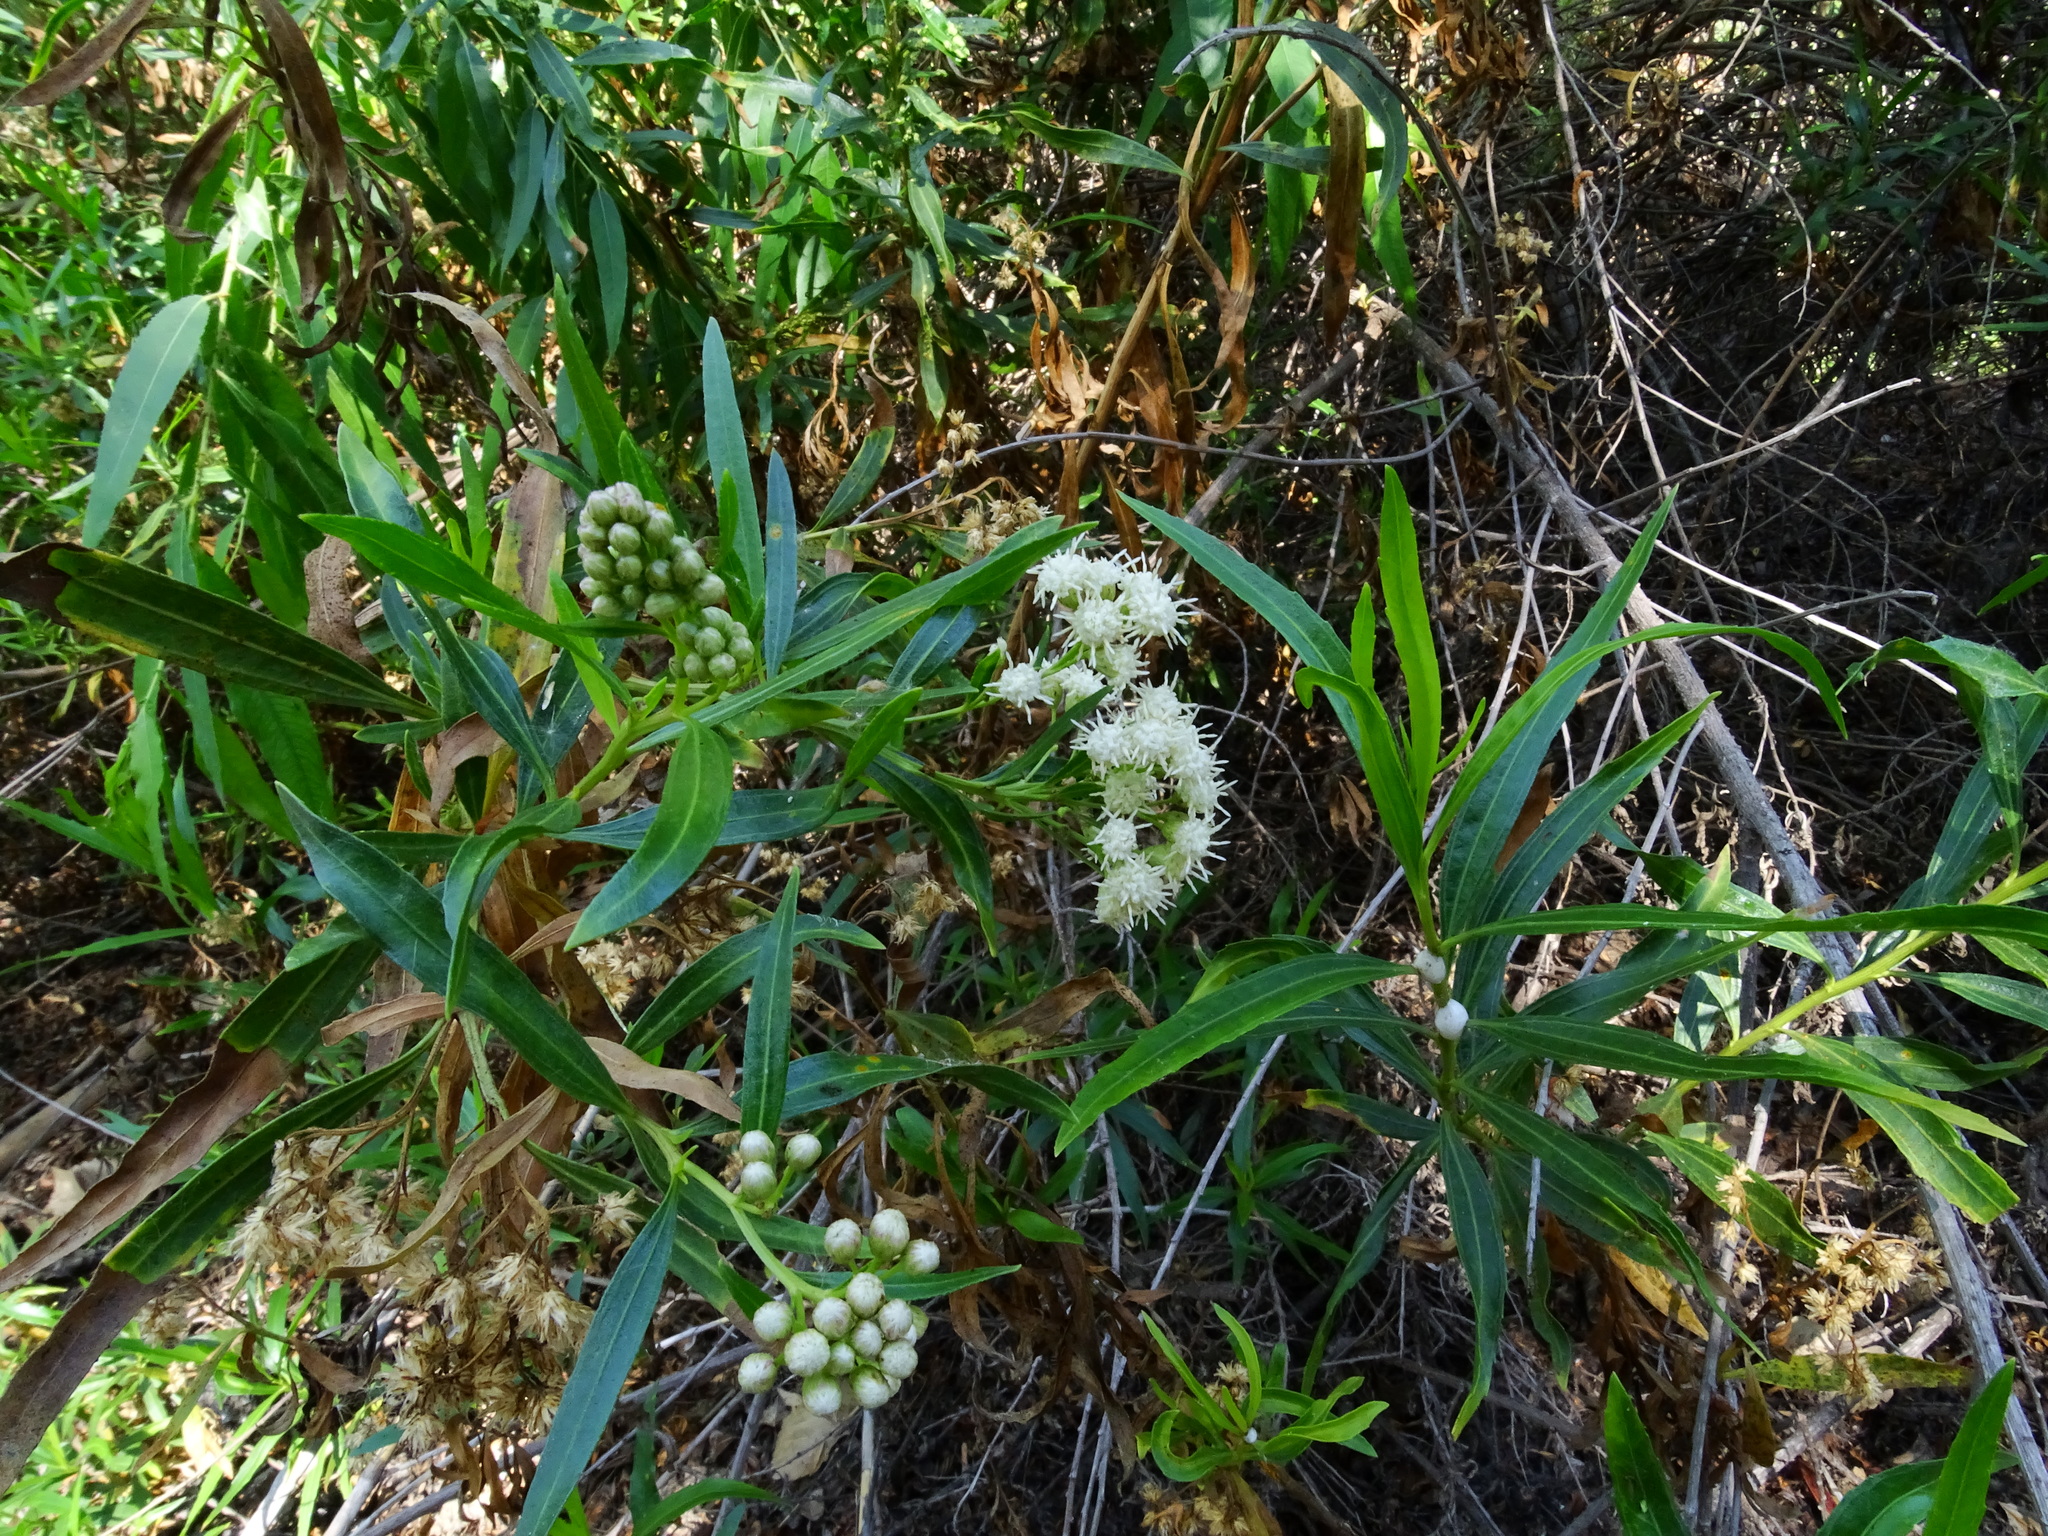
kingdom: Plantae
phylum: Tracheophyta
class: Magnoliopsida
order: Asterales
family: Asteraceae
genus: Baccharis
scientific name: Baccharis salicifolia
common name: Sticky baccharis
